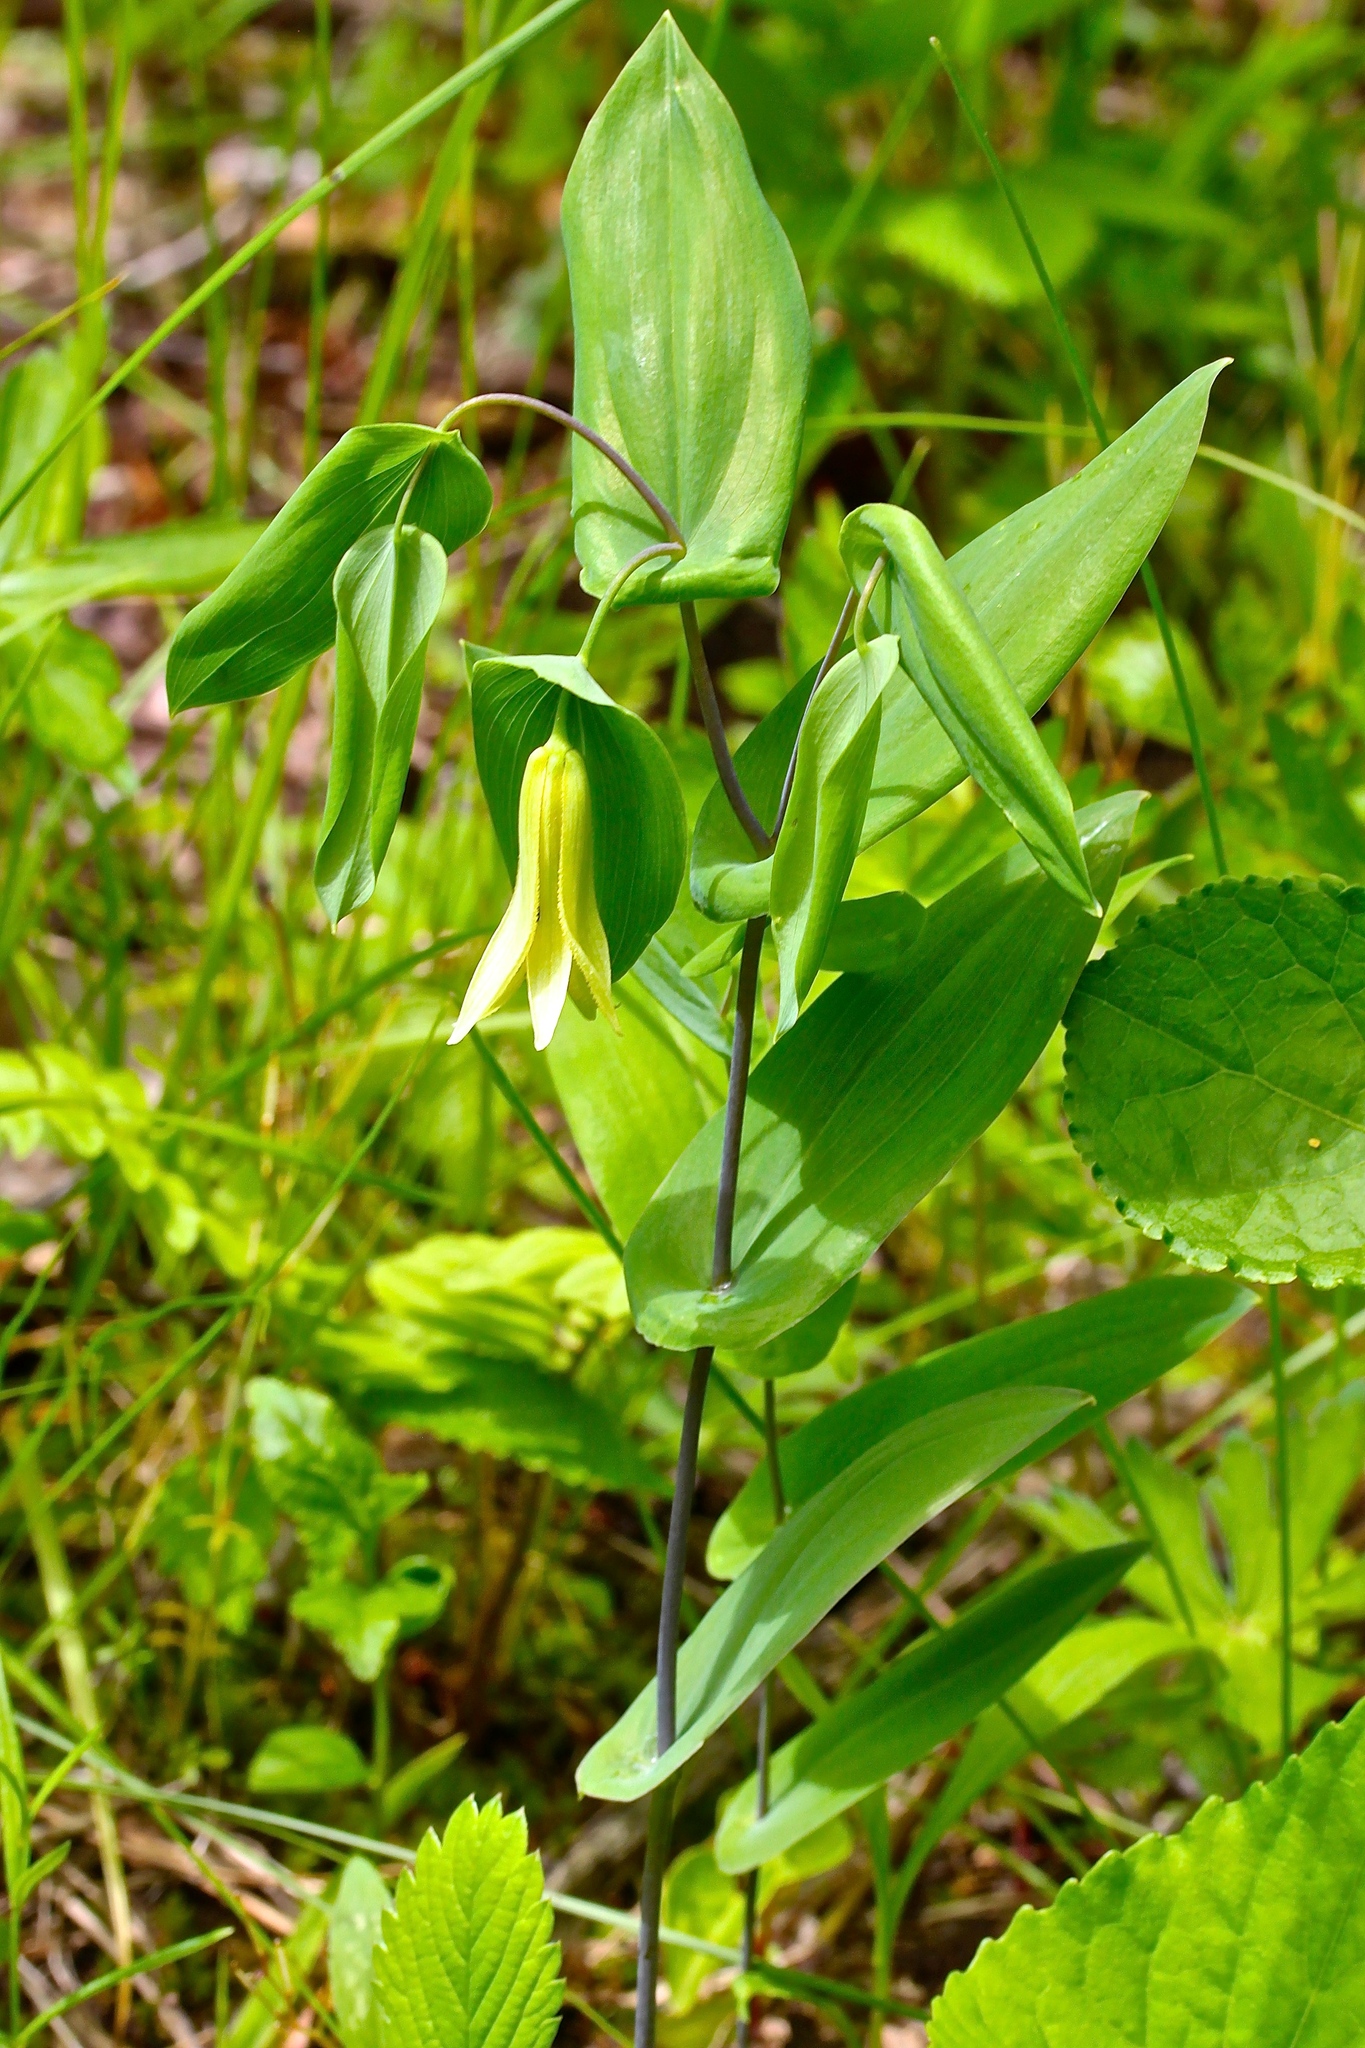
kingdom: Plantae
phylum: Tracheophyta
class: Liliopsida
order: Liliales
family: Colchicaceae
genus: Uvularia
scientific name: Uvularia perfoliata
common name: Perfoliate bellwort
